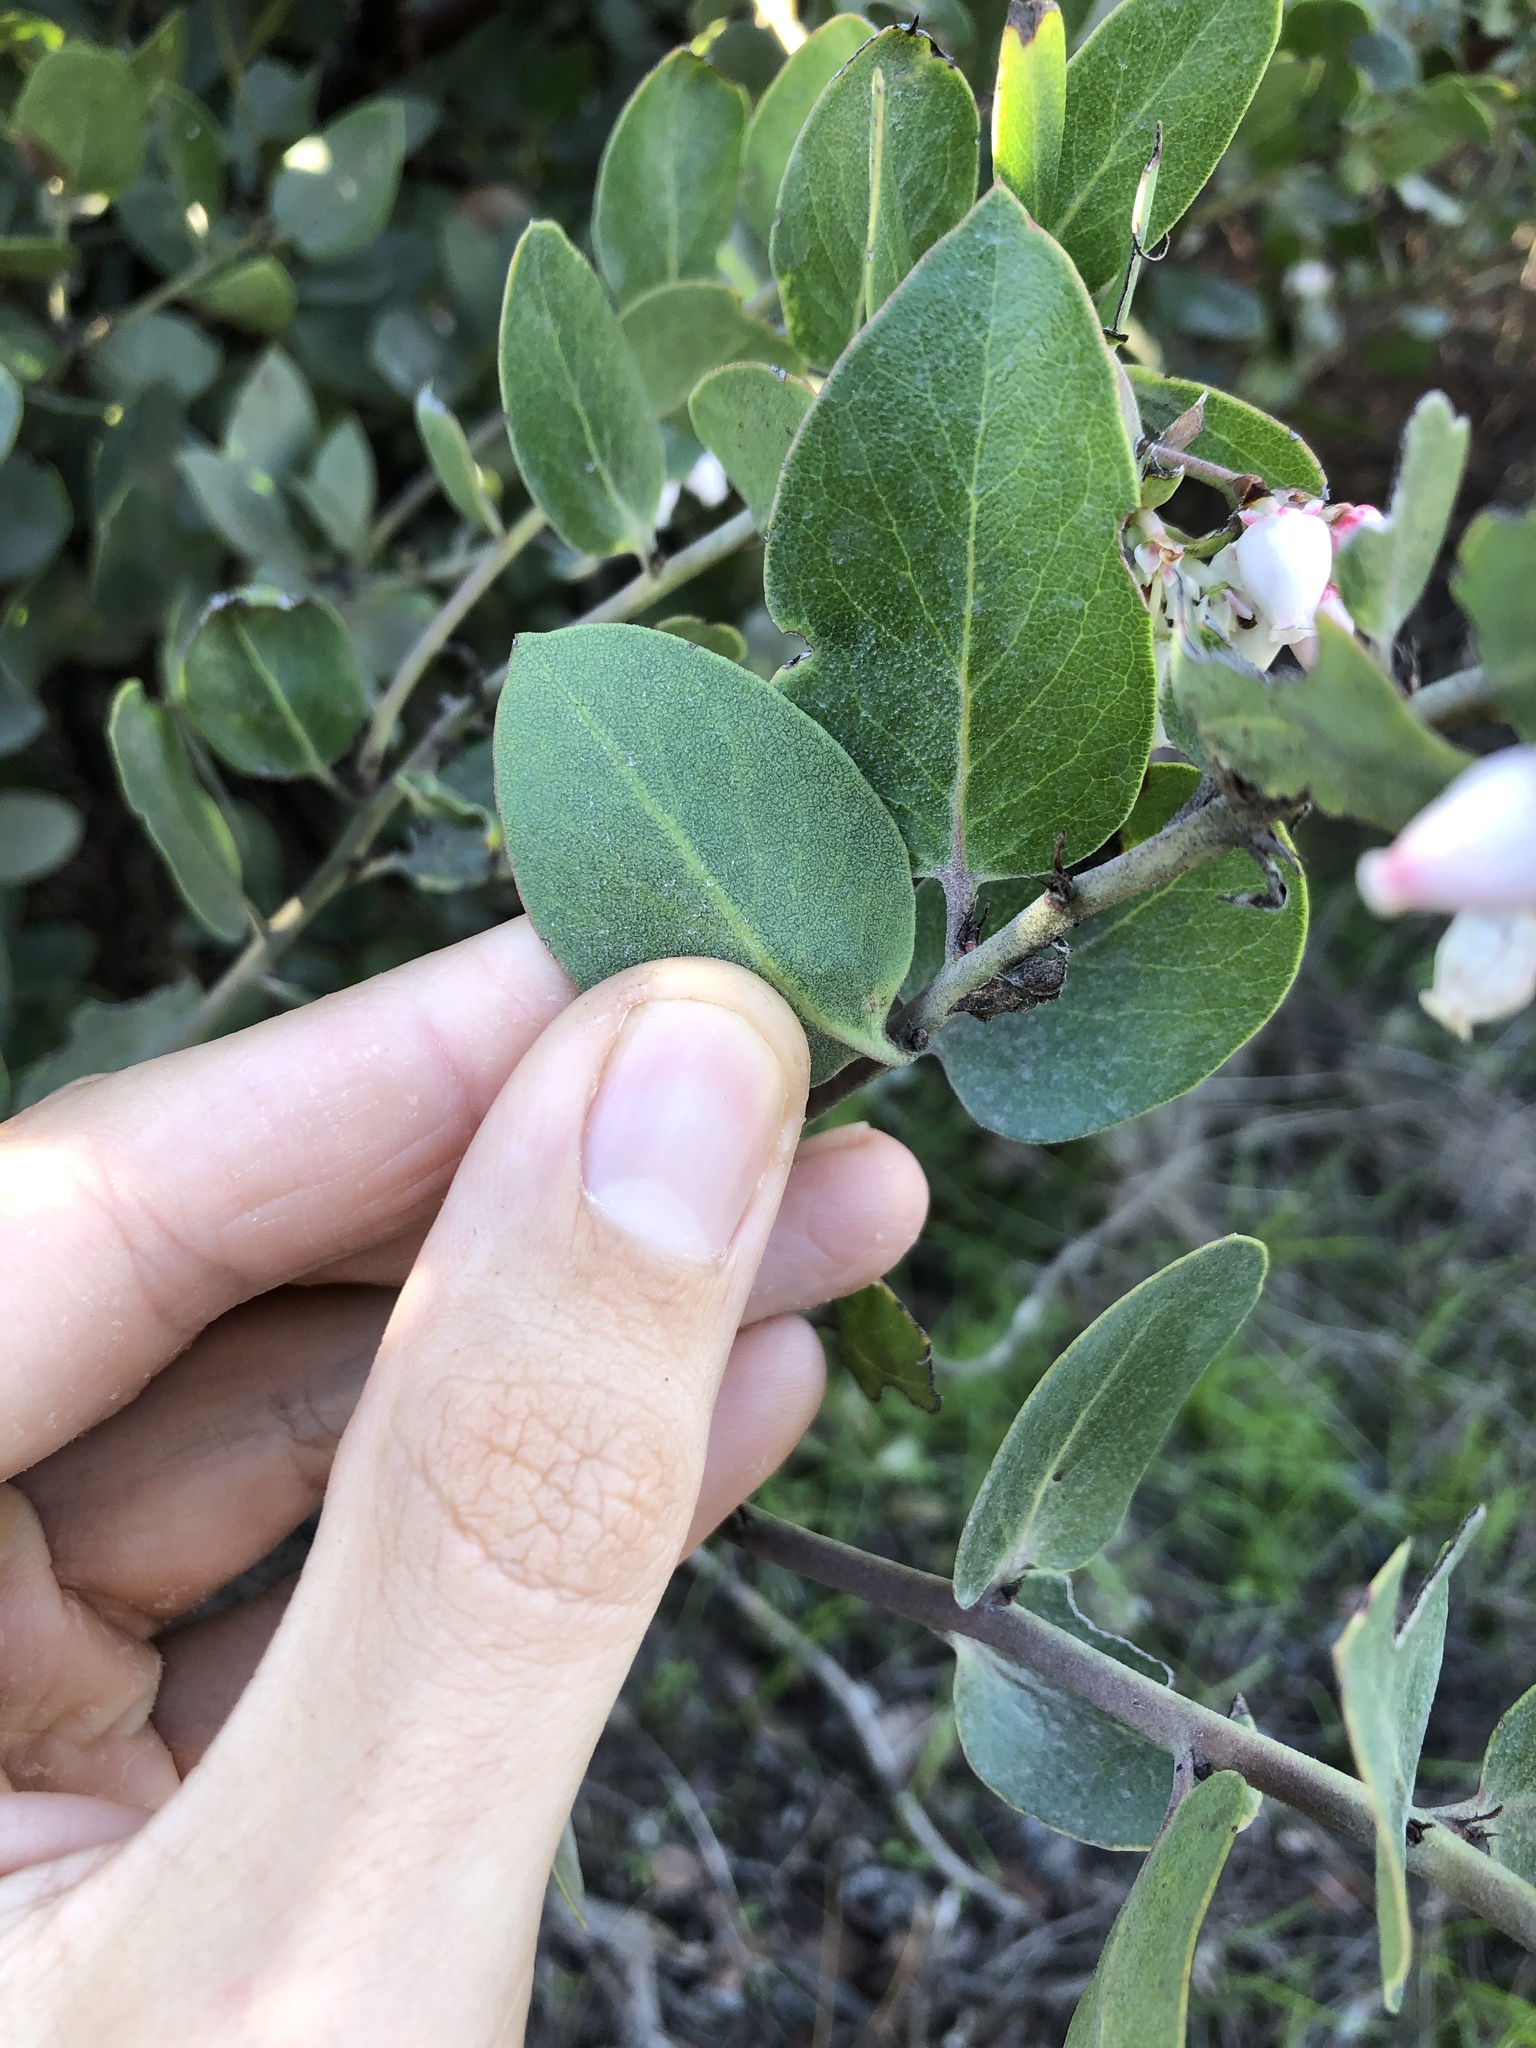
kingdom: Plantae
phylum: Tracheophyta
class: Magnoliopsida
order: Ericales
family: Ericaceae
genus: Arctostaphylos
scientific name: Arctostaphylos crustacea
